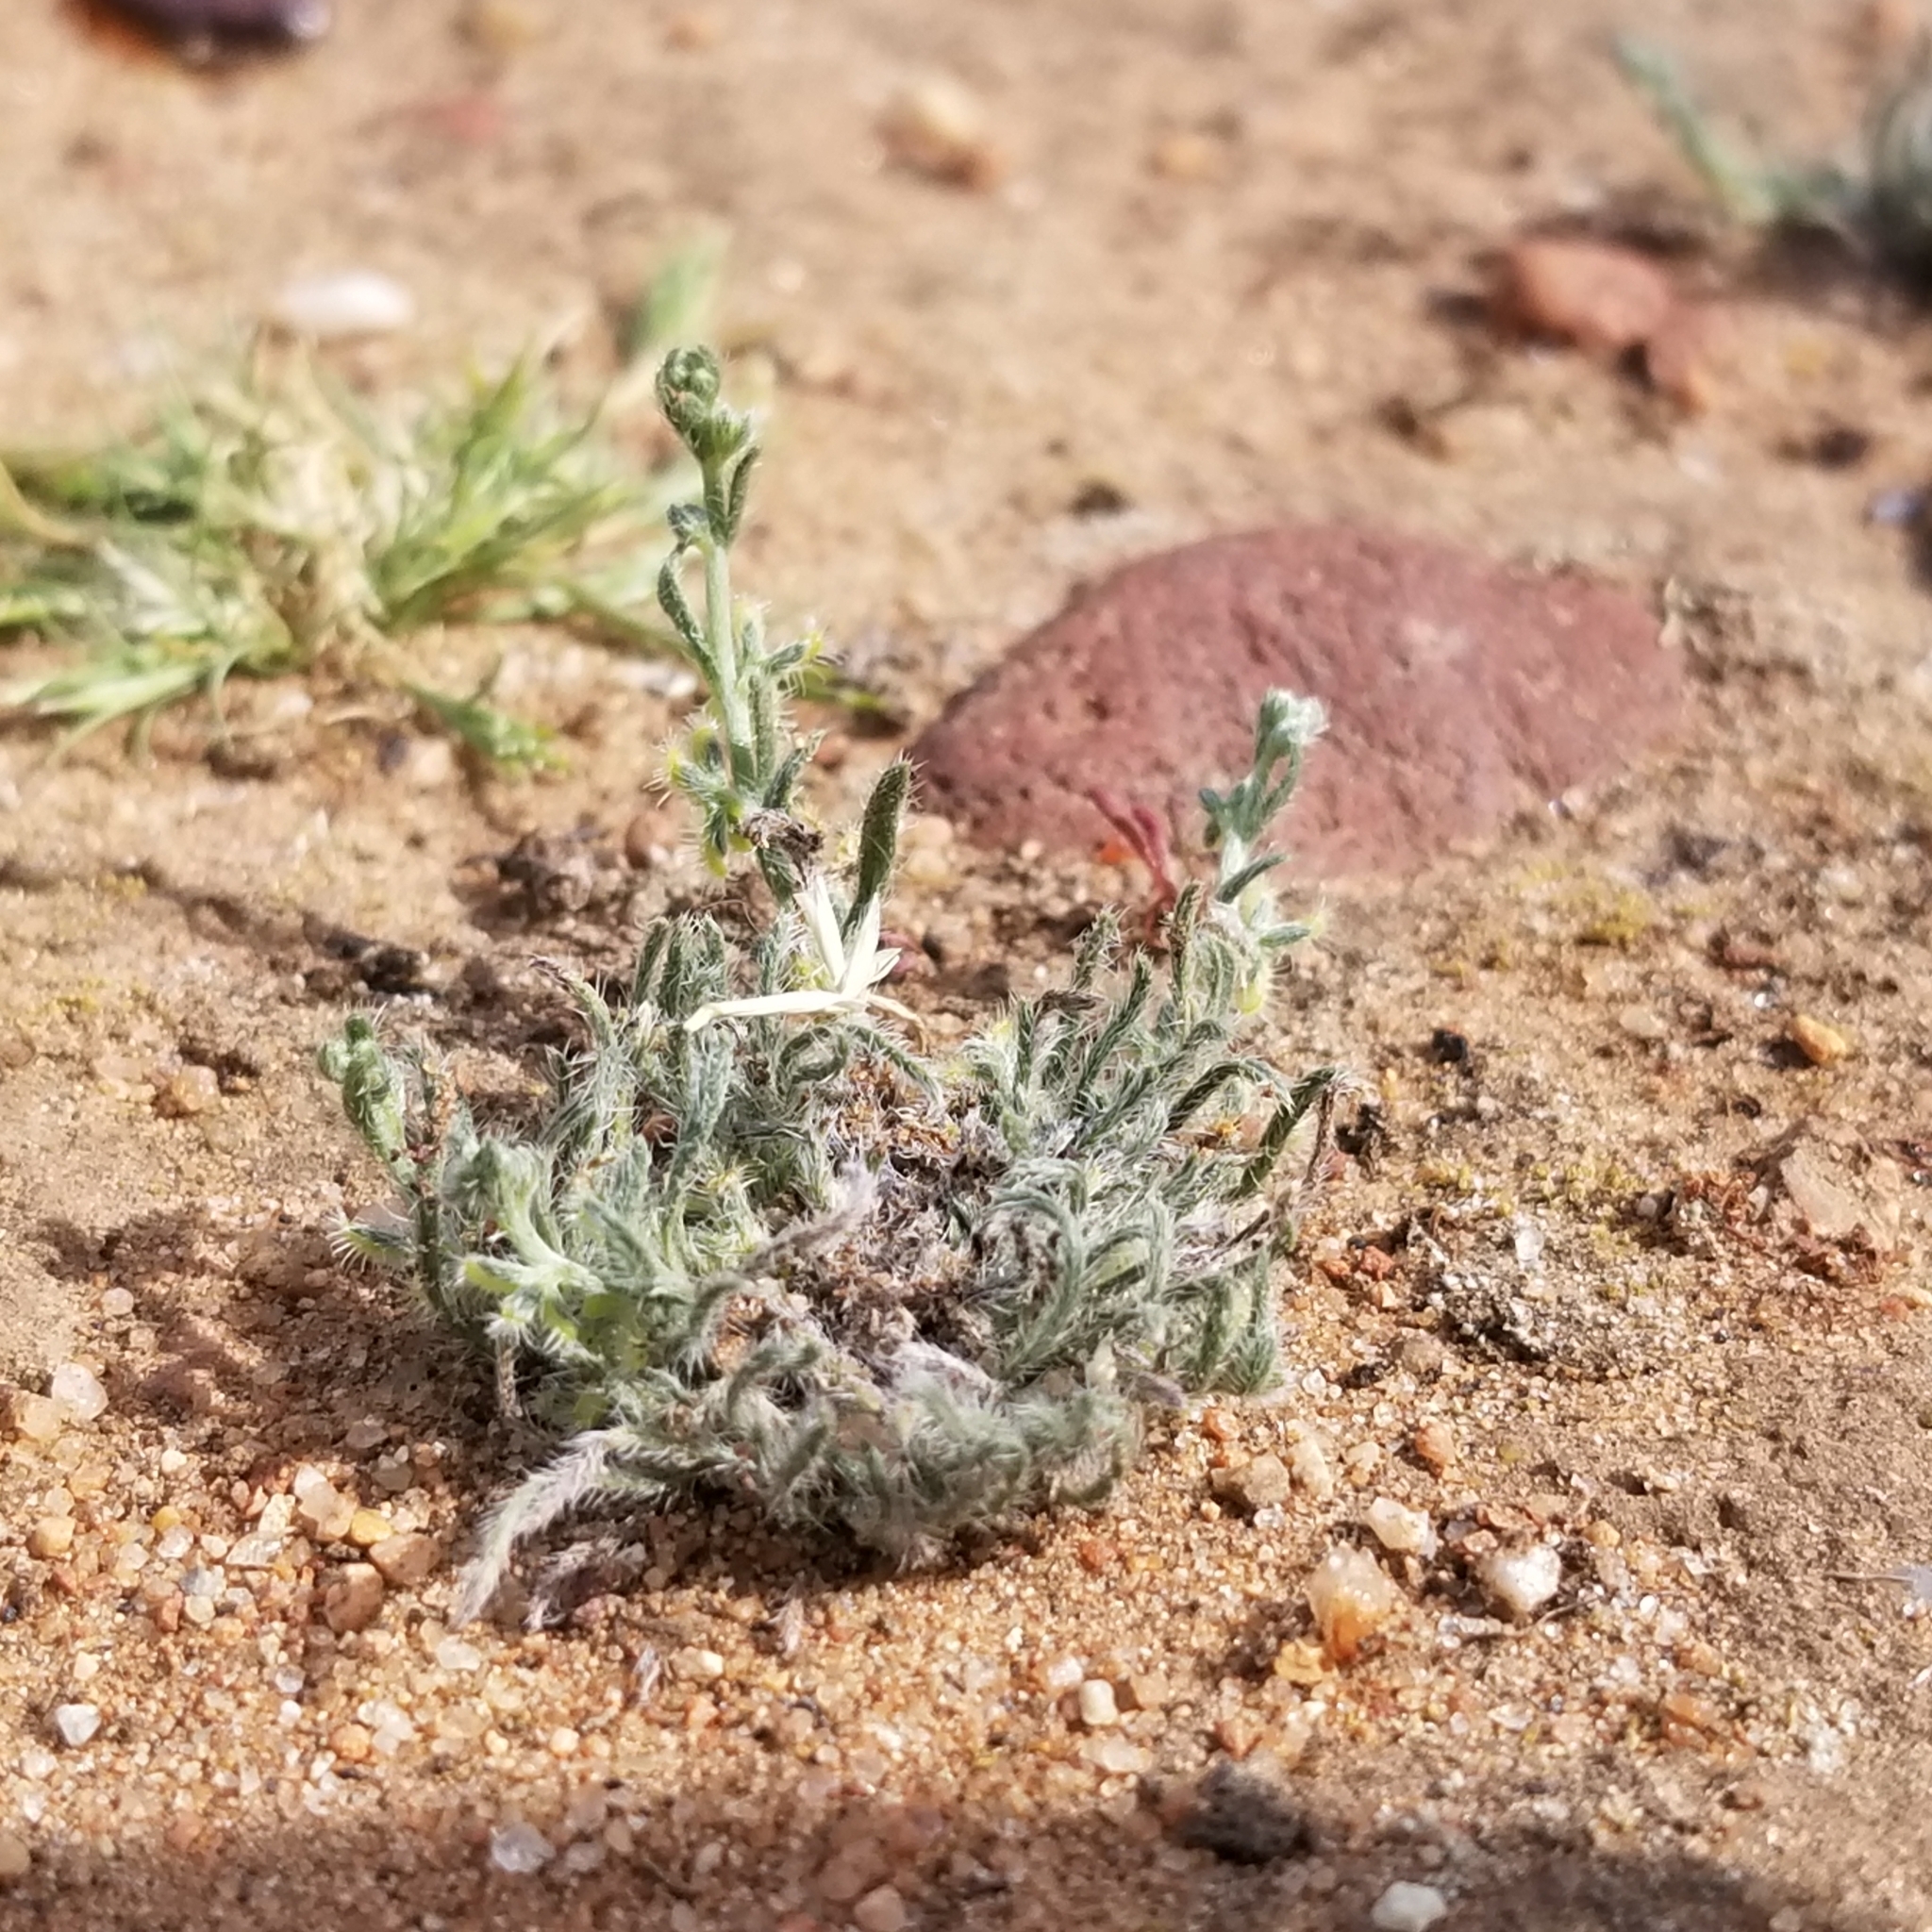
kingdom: Plantae
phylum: Tracheophyta
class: Magnoliopsida
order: Boraginales
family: Boraginaceae
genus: Pectocarya
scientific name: Pectocarya linearis
